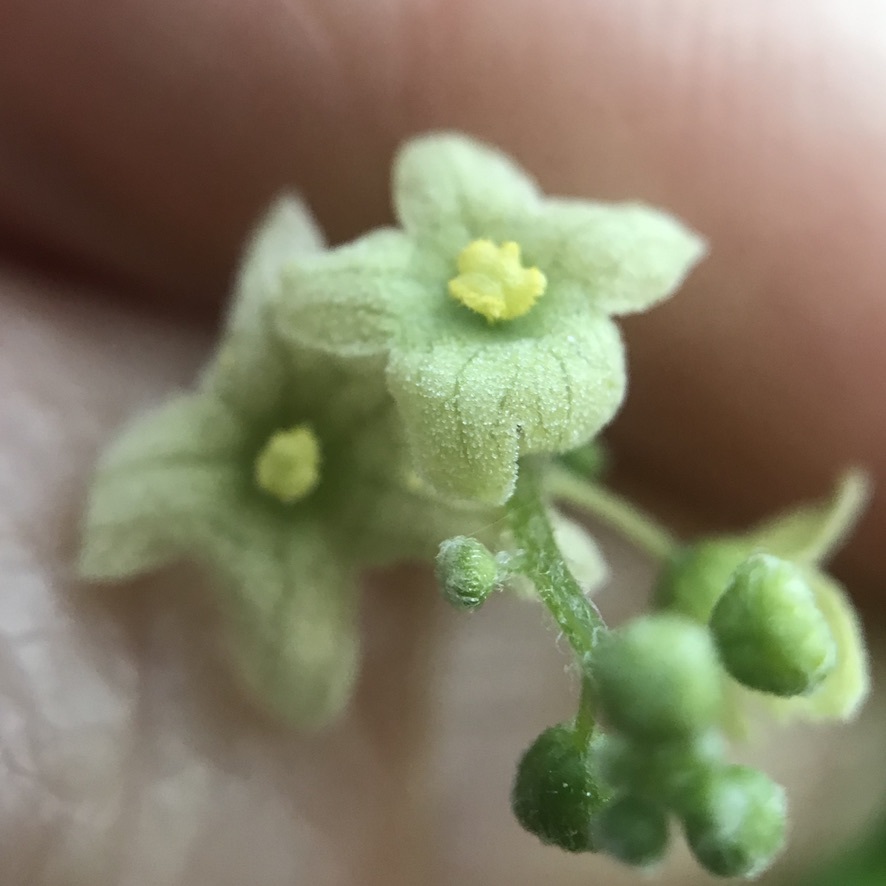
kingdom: Plantae
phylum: Tracheophyta
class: Magnoliopsida
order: Cucurbitales
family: Cucurbitaceae
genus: Marah
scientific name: Marah fabacea
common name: California manroot
